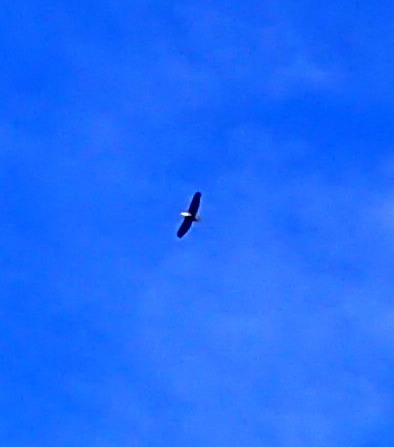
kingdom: Animalia
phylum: Chordata
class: Aves
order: Accipitriformes
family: Accipitridae
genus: Haliaeetus
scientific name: Haliaeetus leucocephalus
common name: Bald eagle
